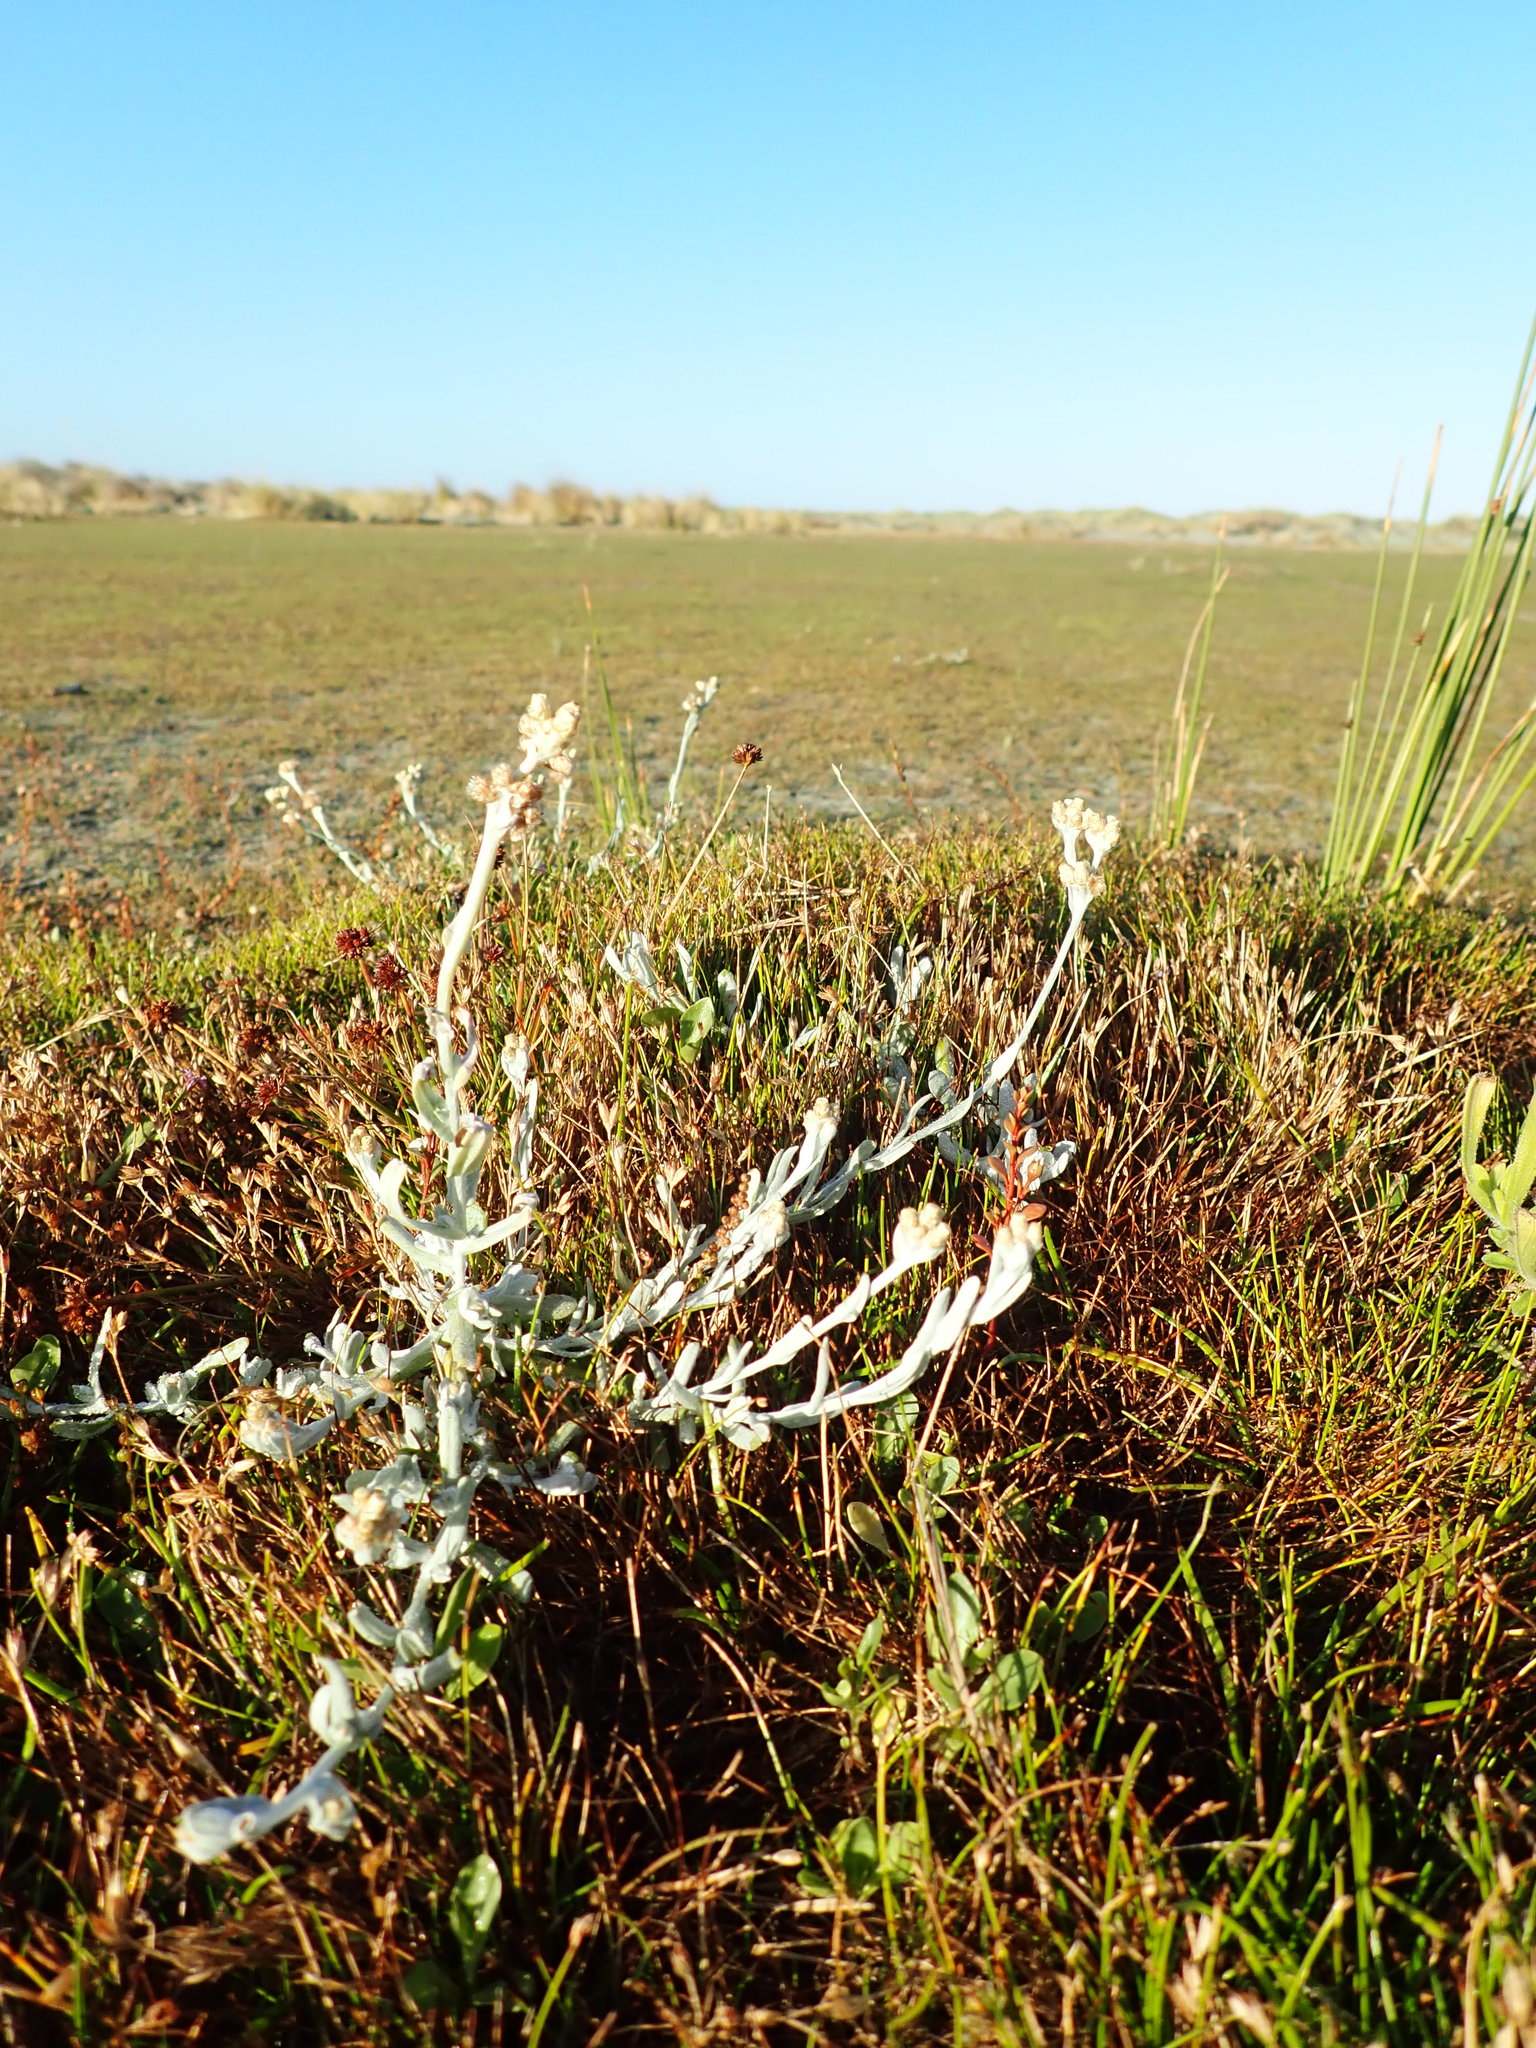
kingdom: Plantae
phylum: Tracheophyta
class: Magnoliopsida
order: Asterales
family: Asteraceae
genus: Helichrysum
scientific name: Helichrysum luteoalbum
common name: Daisy
